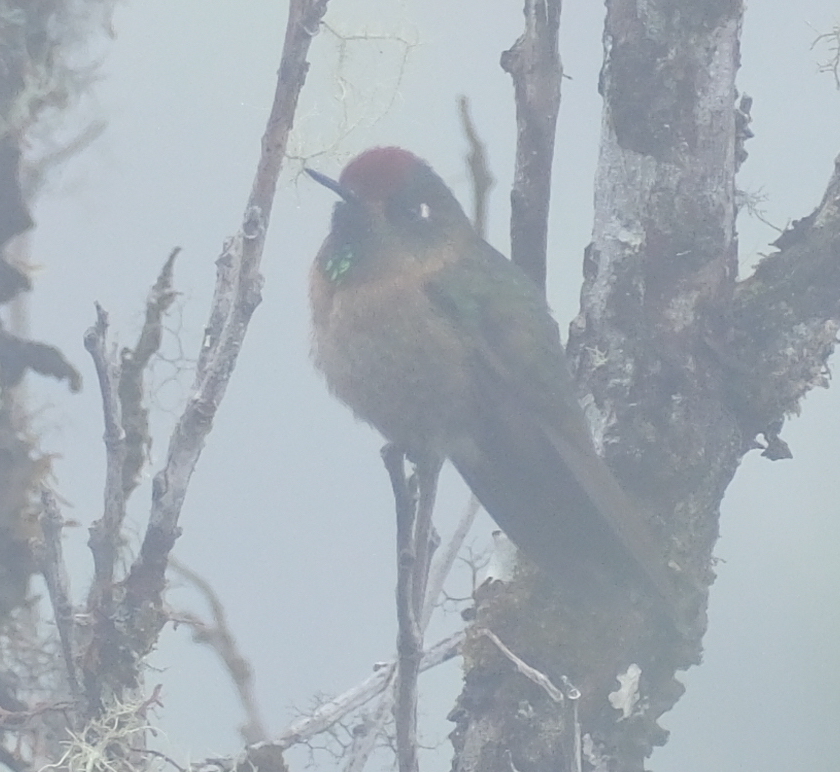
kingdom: Animalia
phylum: Chordata
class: Aves
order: Apodiformes
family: Trochilidae
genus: Chalcostigma
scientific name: Chalcostigma ruficeps
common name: Rufous-capped thornbill
